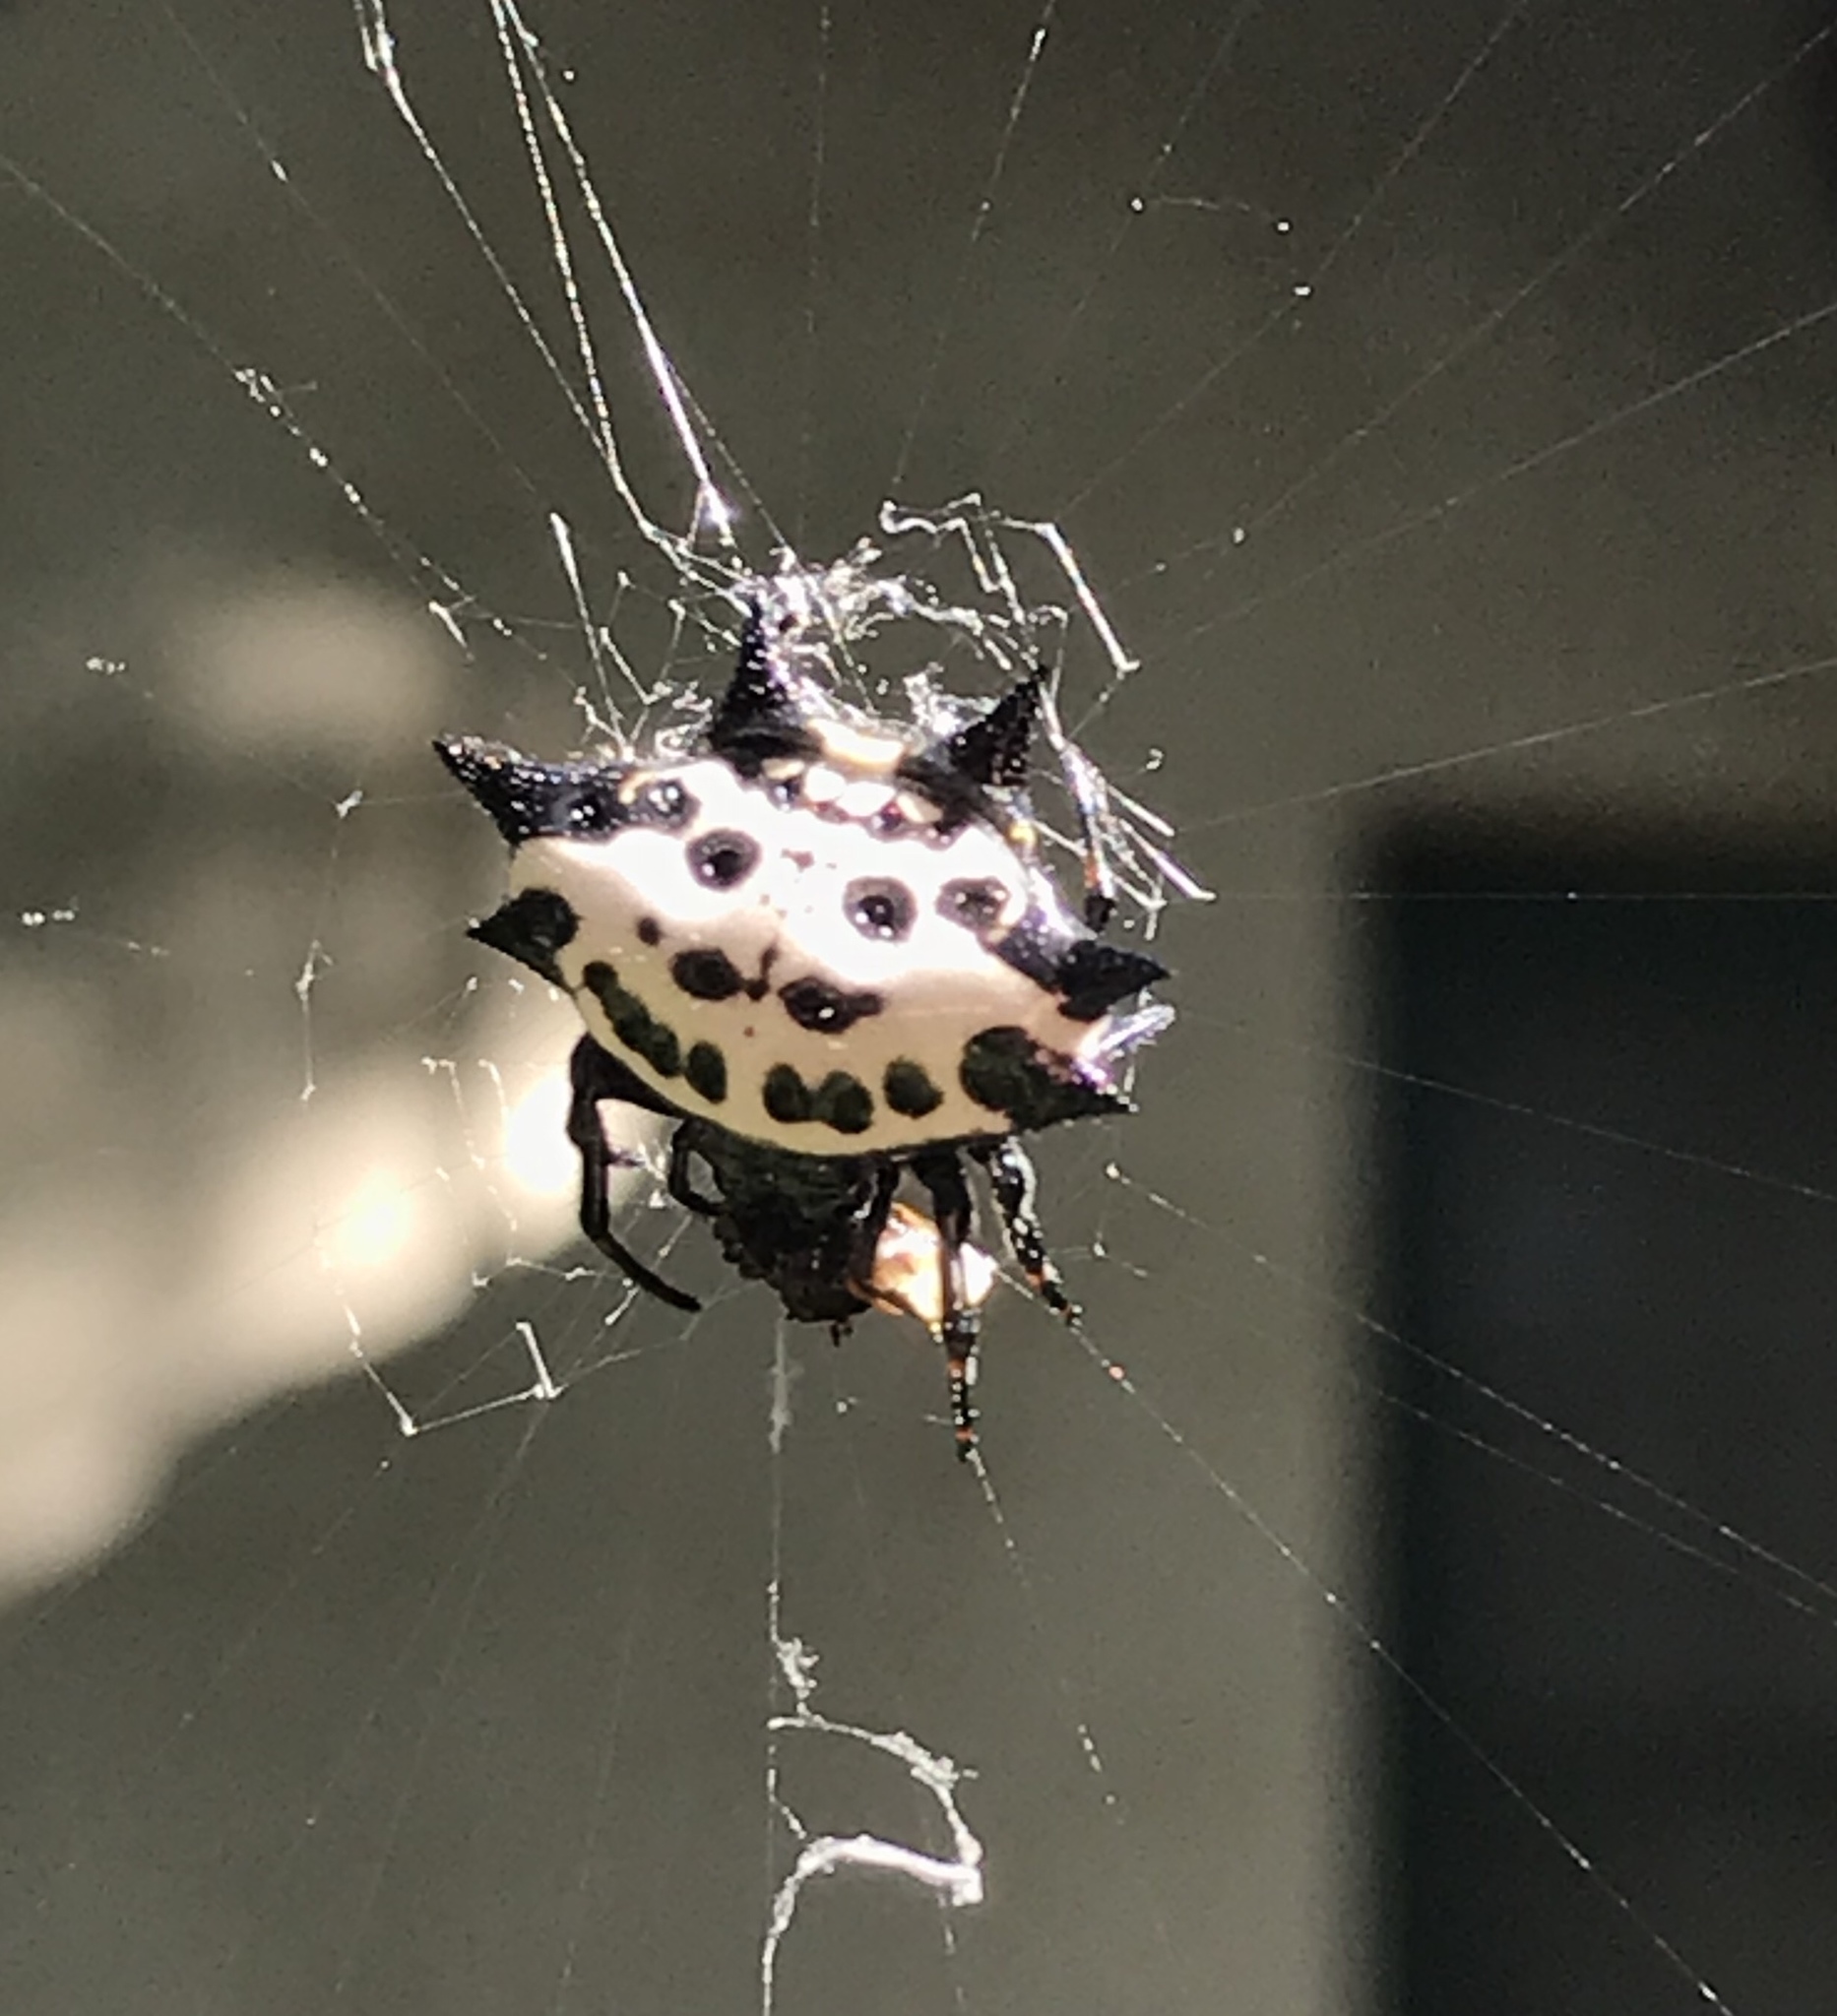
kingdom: Animalia
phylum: Arthropoda
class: Arachnida
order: Araneae
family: Araneidae
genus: Gasteracantha
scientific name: Gasteracantha cancriformis
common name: Orb weavers
